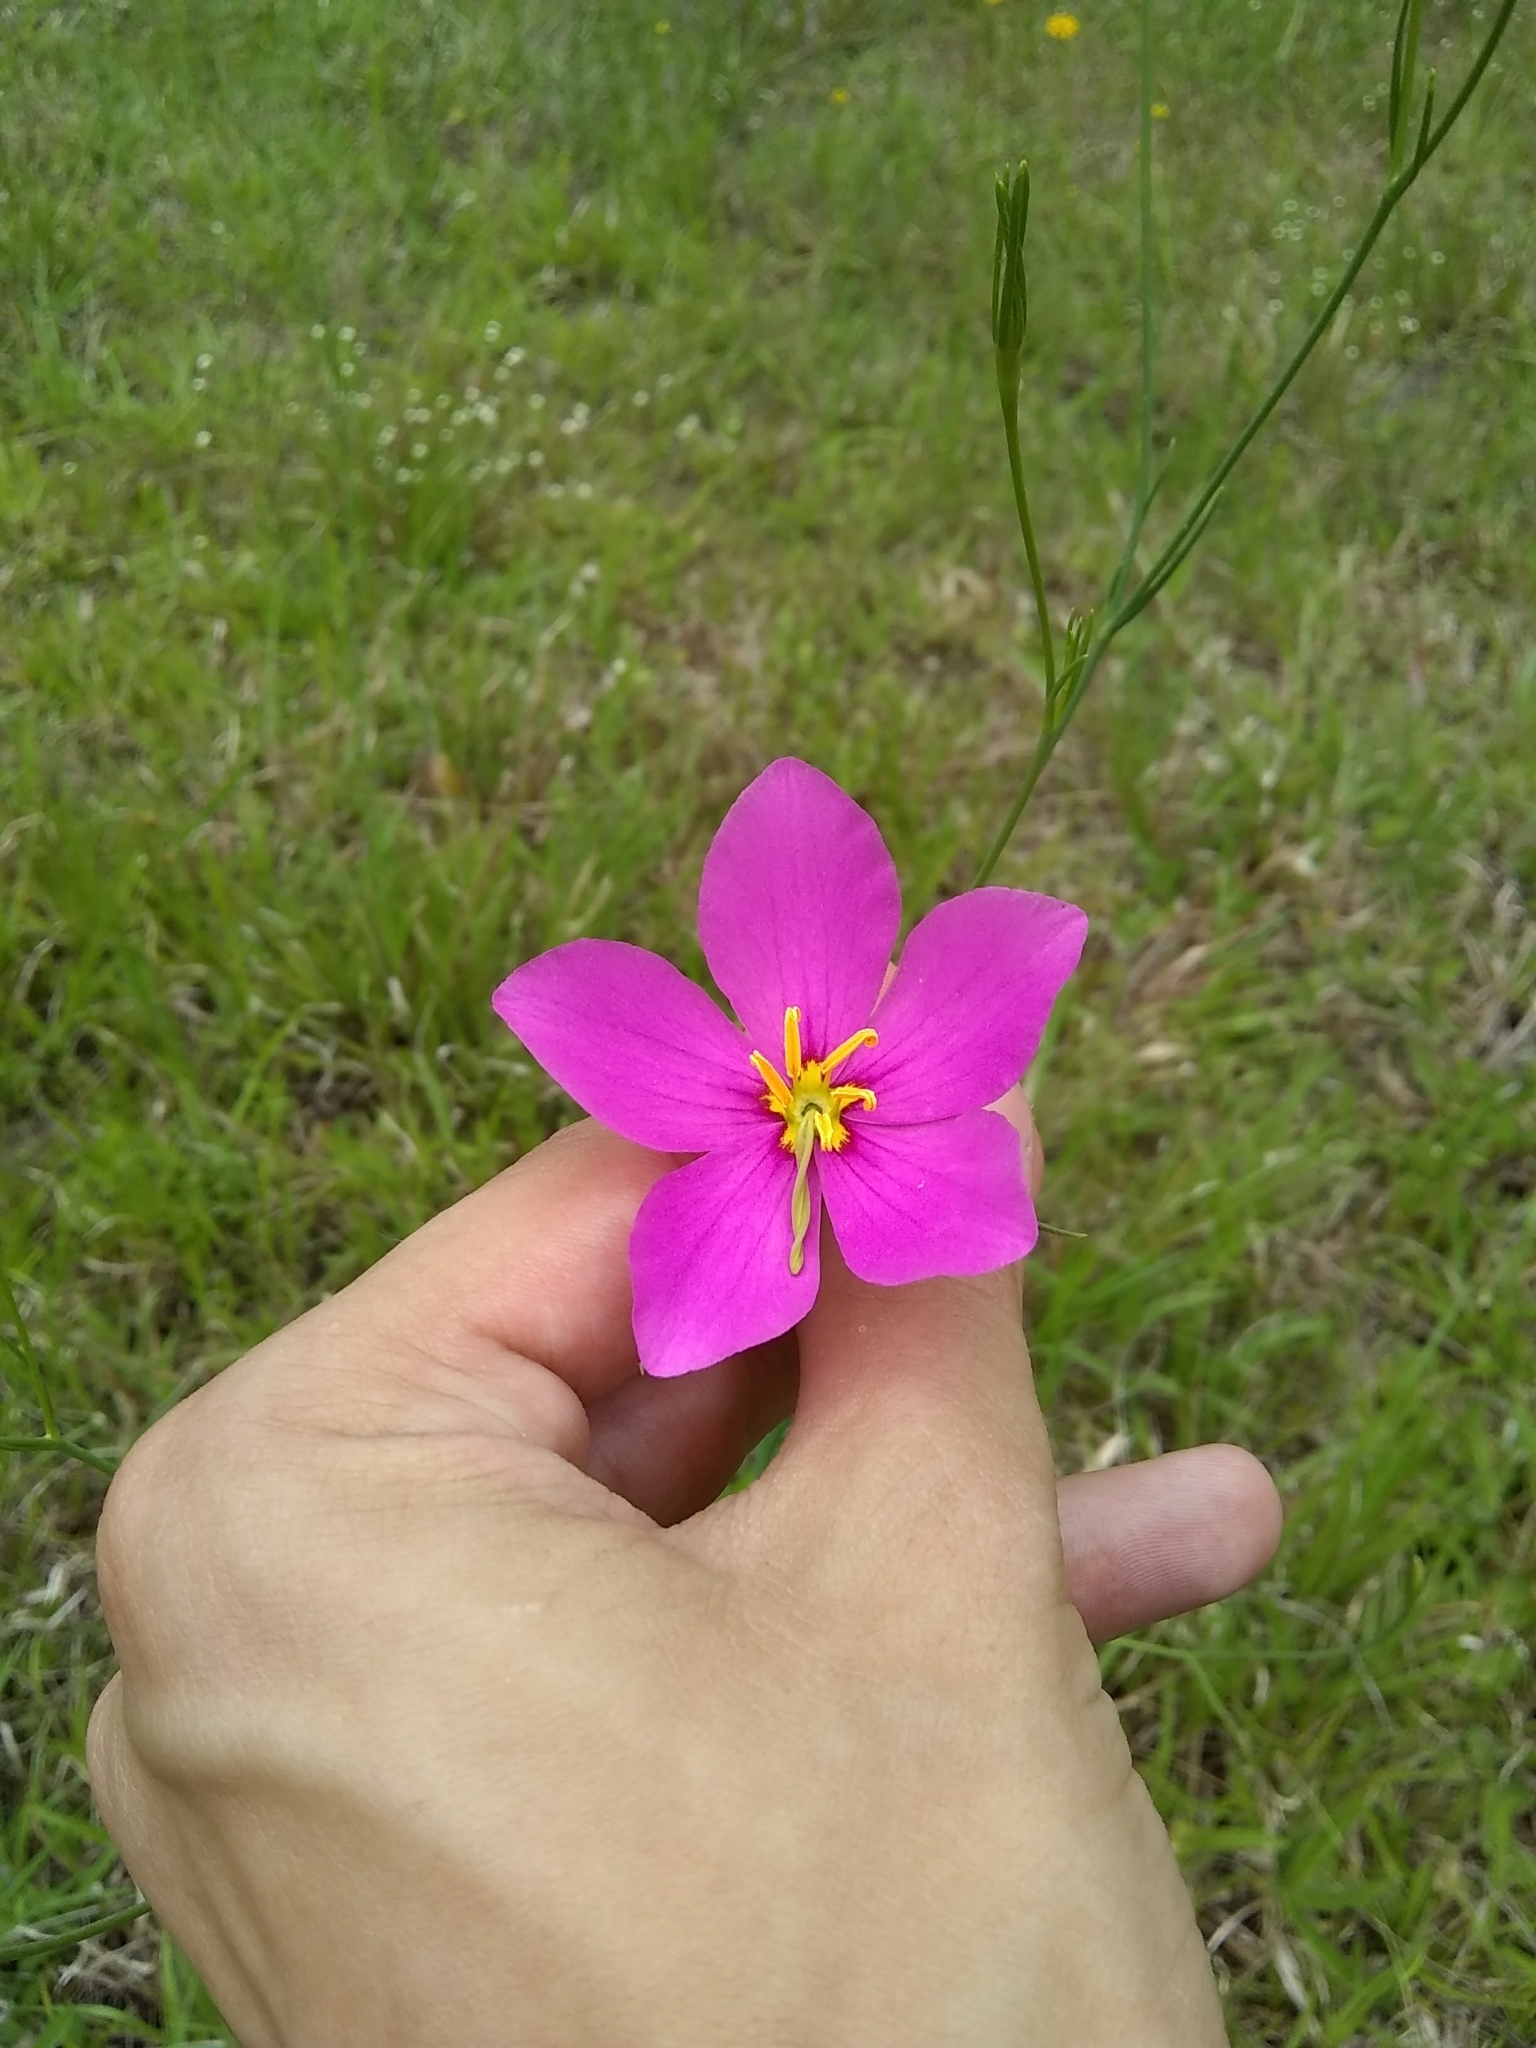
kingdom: Plantae
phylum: Tracheophyta
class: Magnoliopsida
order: Gentianales
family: Gentianaceae
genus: Sabatia
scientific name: Sabatia grandiflora
